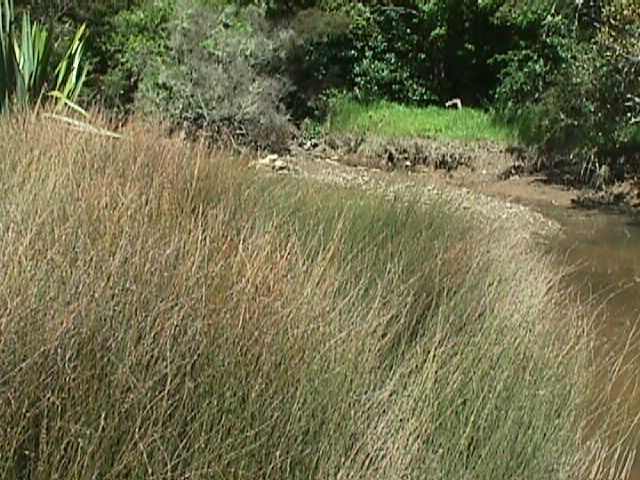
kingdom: Plantae
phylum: Tracheophyta
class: Liliopsida
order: Poales
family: Restionaceae
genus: Apodasmia
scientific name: Apodasmia similis
